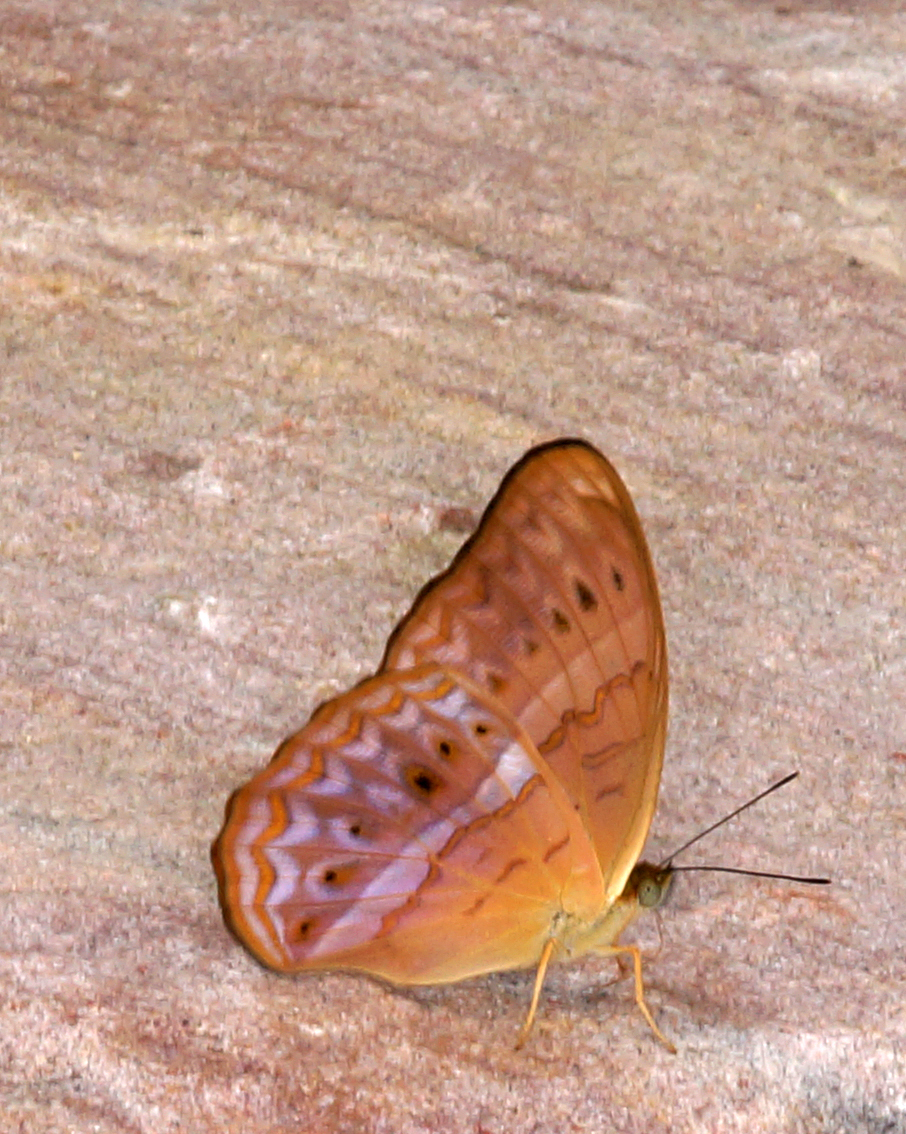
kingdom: Animalia
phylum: Arthropoda
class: Insecta
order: Lepidoptera
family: Nymphalidae
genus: Cirrochroa
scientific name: Cirrochroa tyche
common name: Common yeoman
